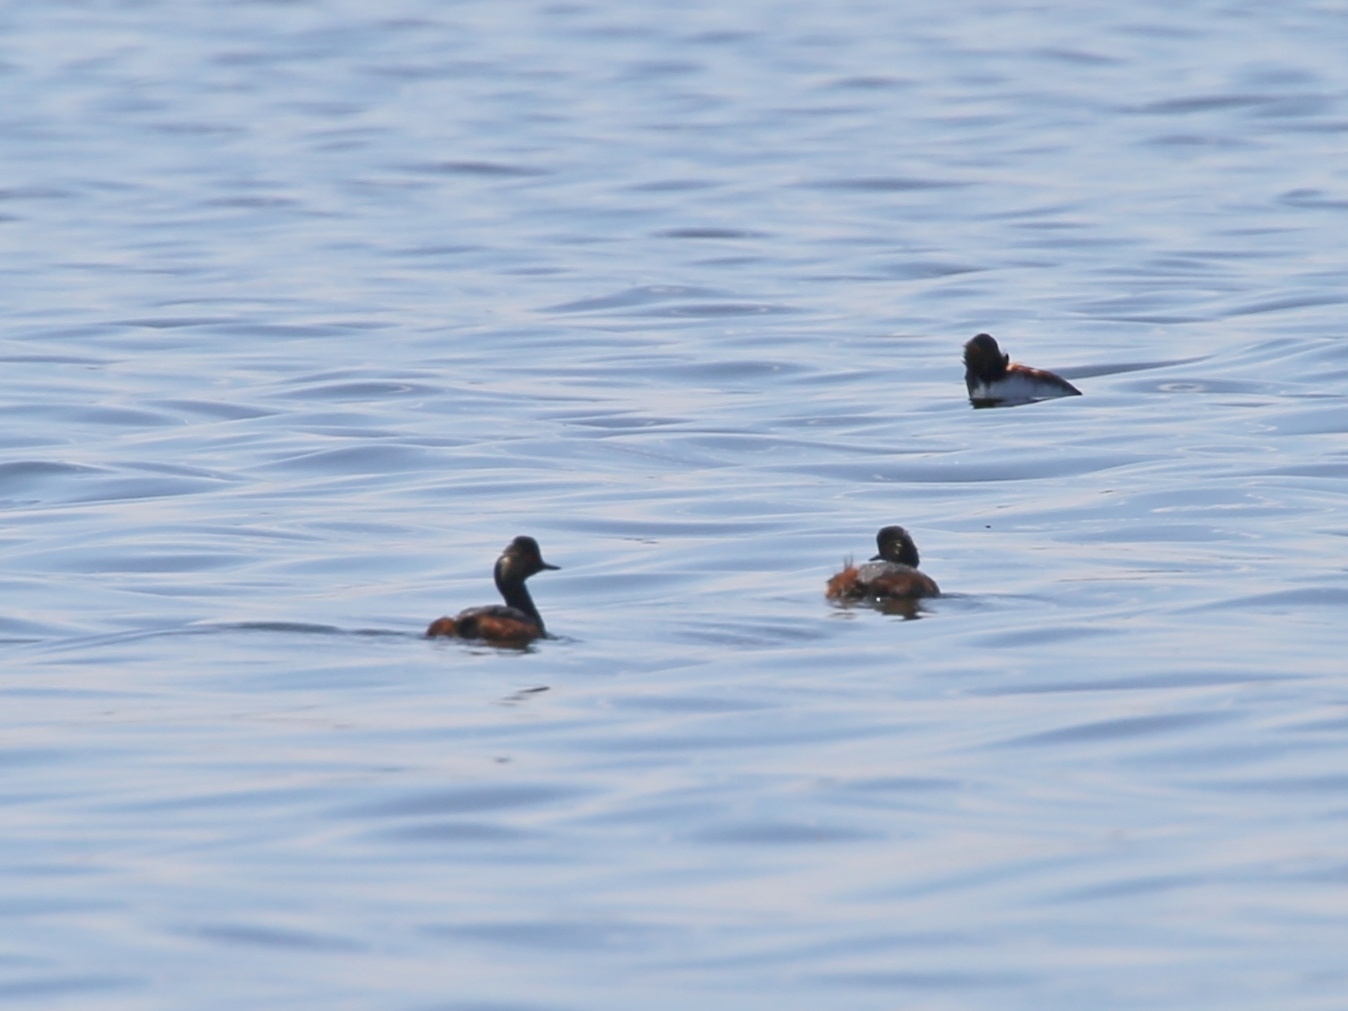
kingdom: Animalia
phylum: Chordata
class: Aves
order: Podicipediformes
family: Podicipedidae
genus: Podiceps
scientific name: Podiceps nigricollis
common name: Black-necked grebe
